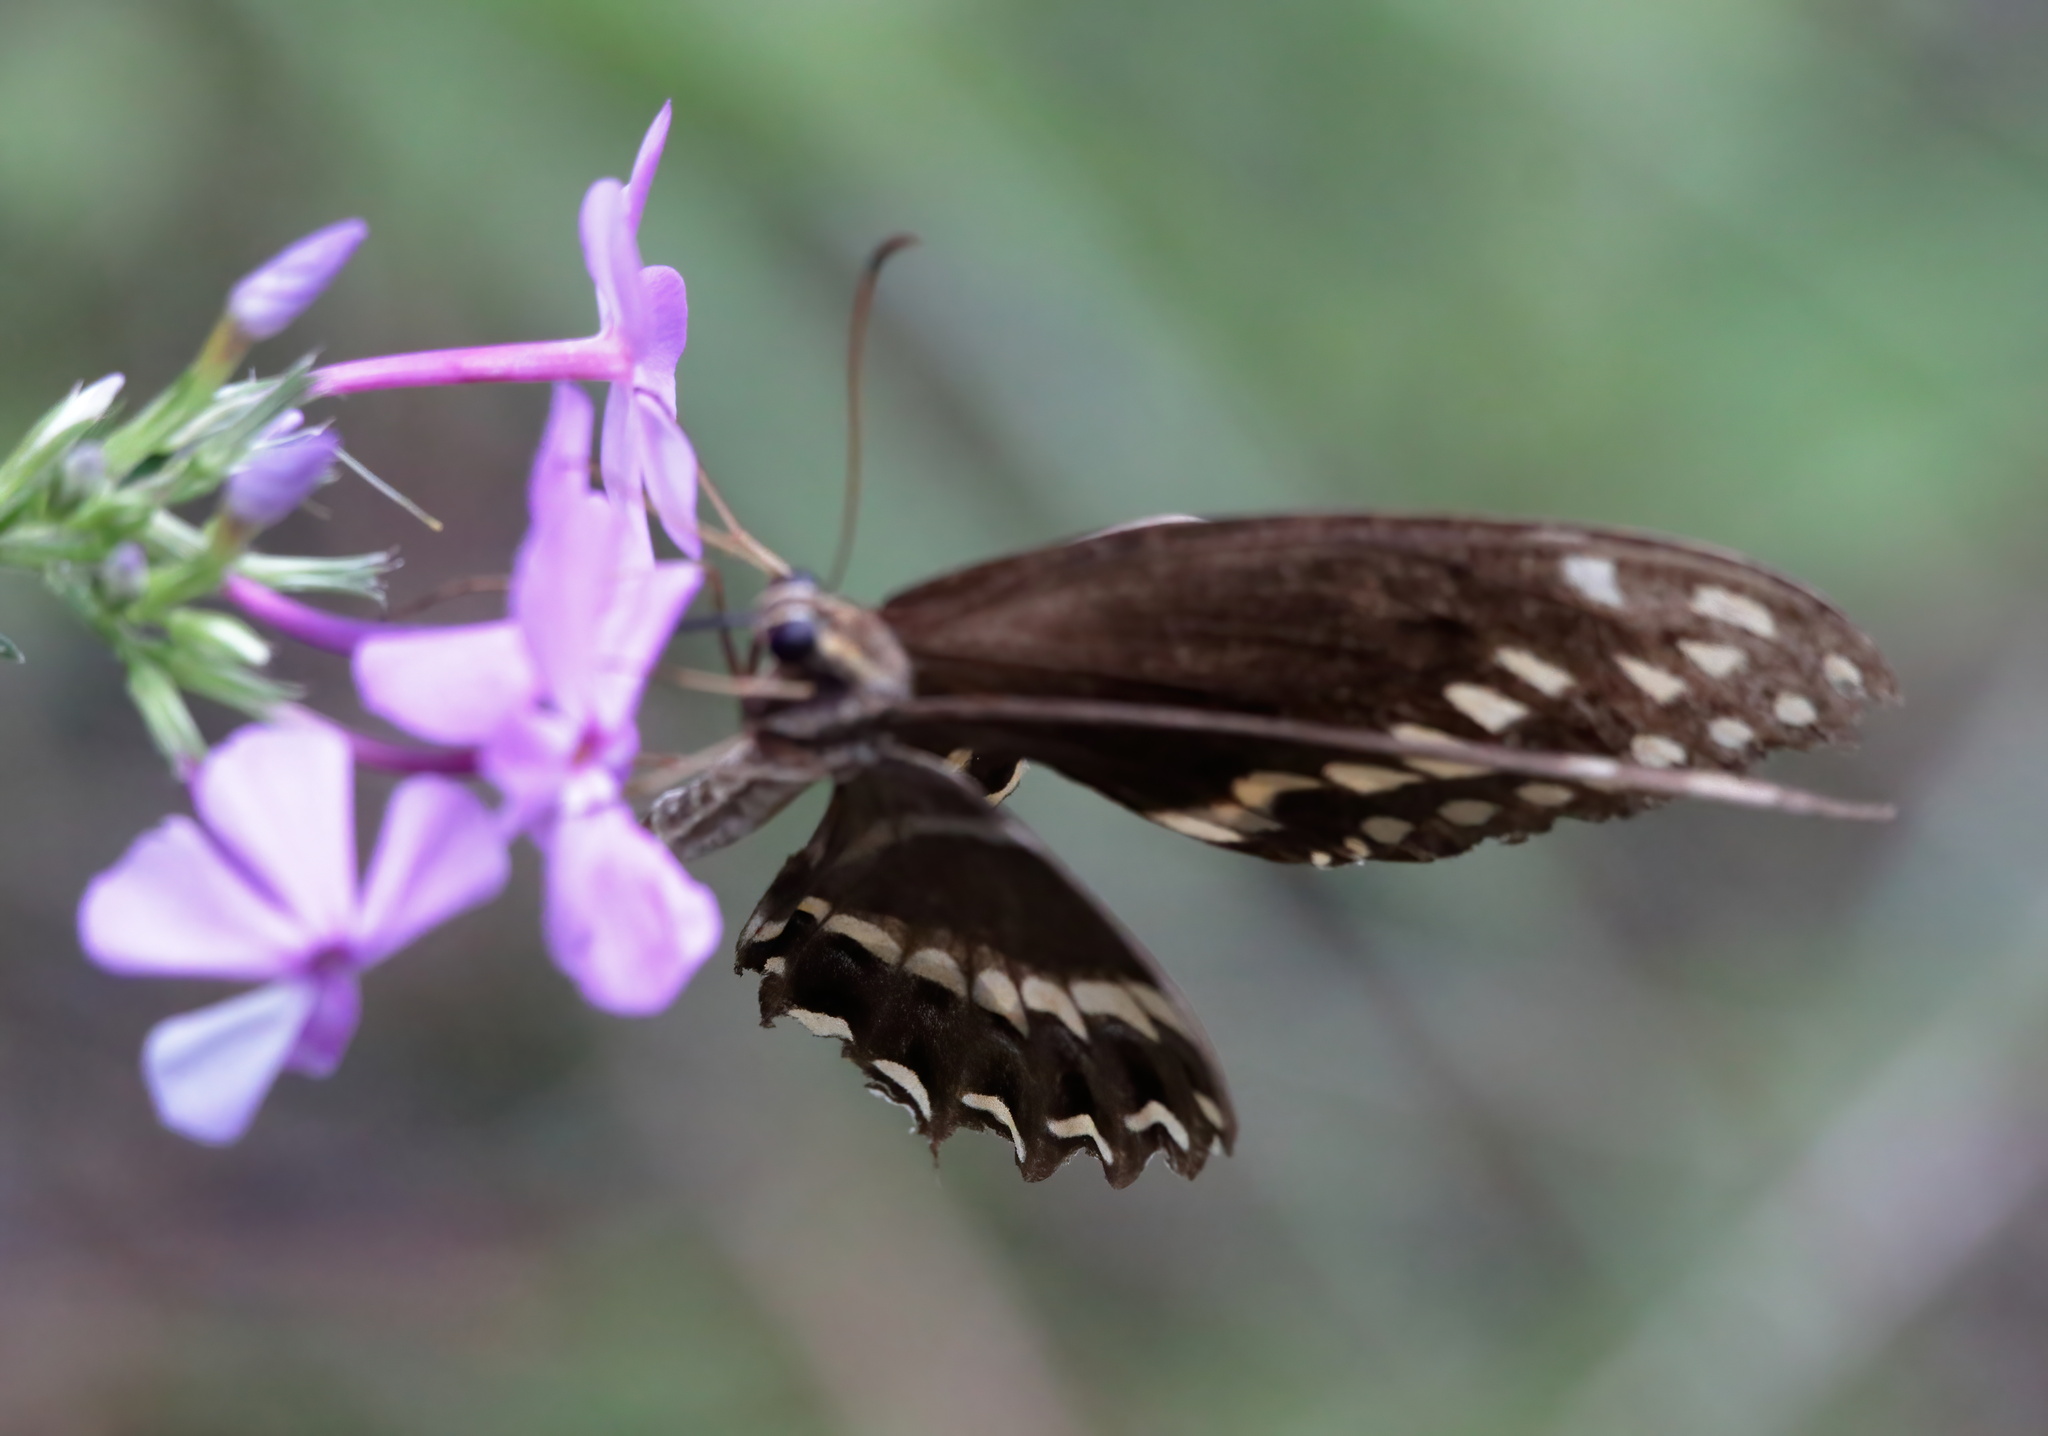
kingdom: Animalia
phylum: Arthropoda
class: Insecta
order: Lepidoptera
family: Papilionidae
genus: Papilio
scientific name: Papilio palamedes
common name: Palamedes swallowtail
